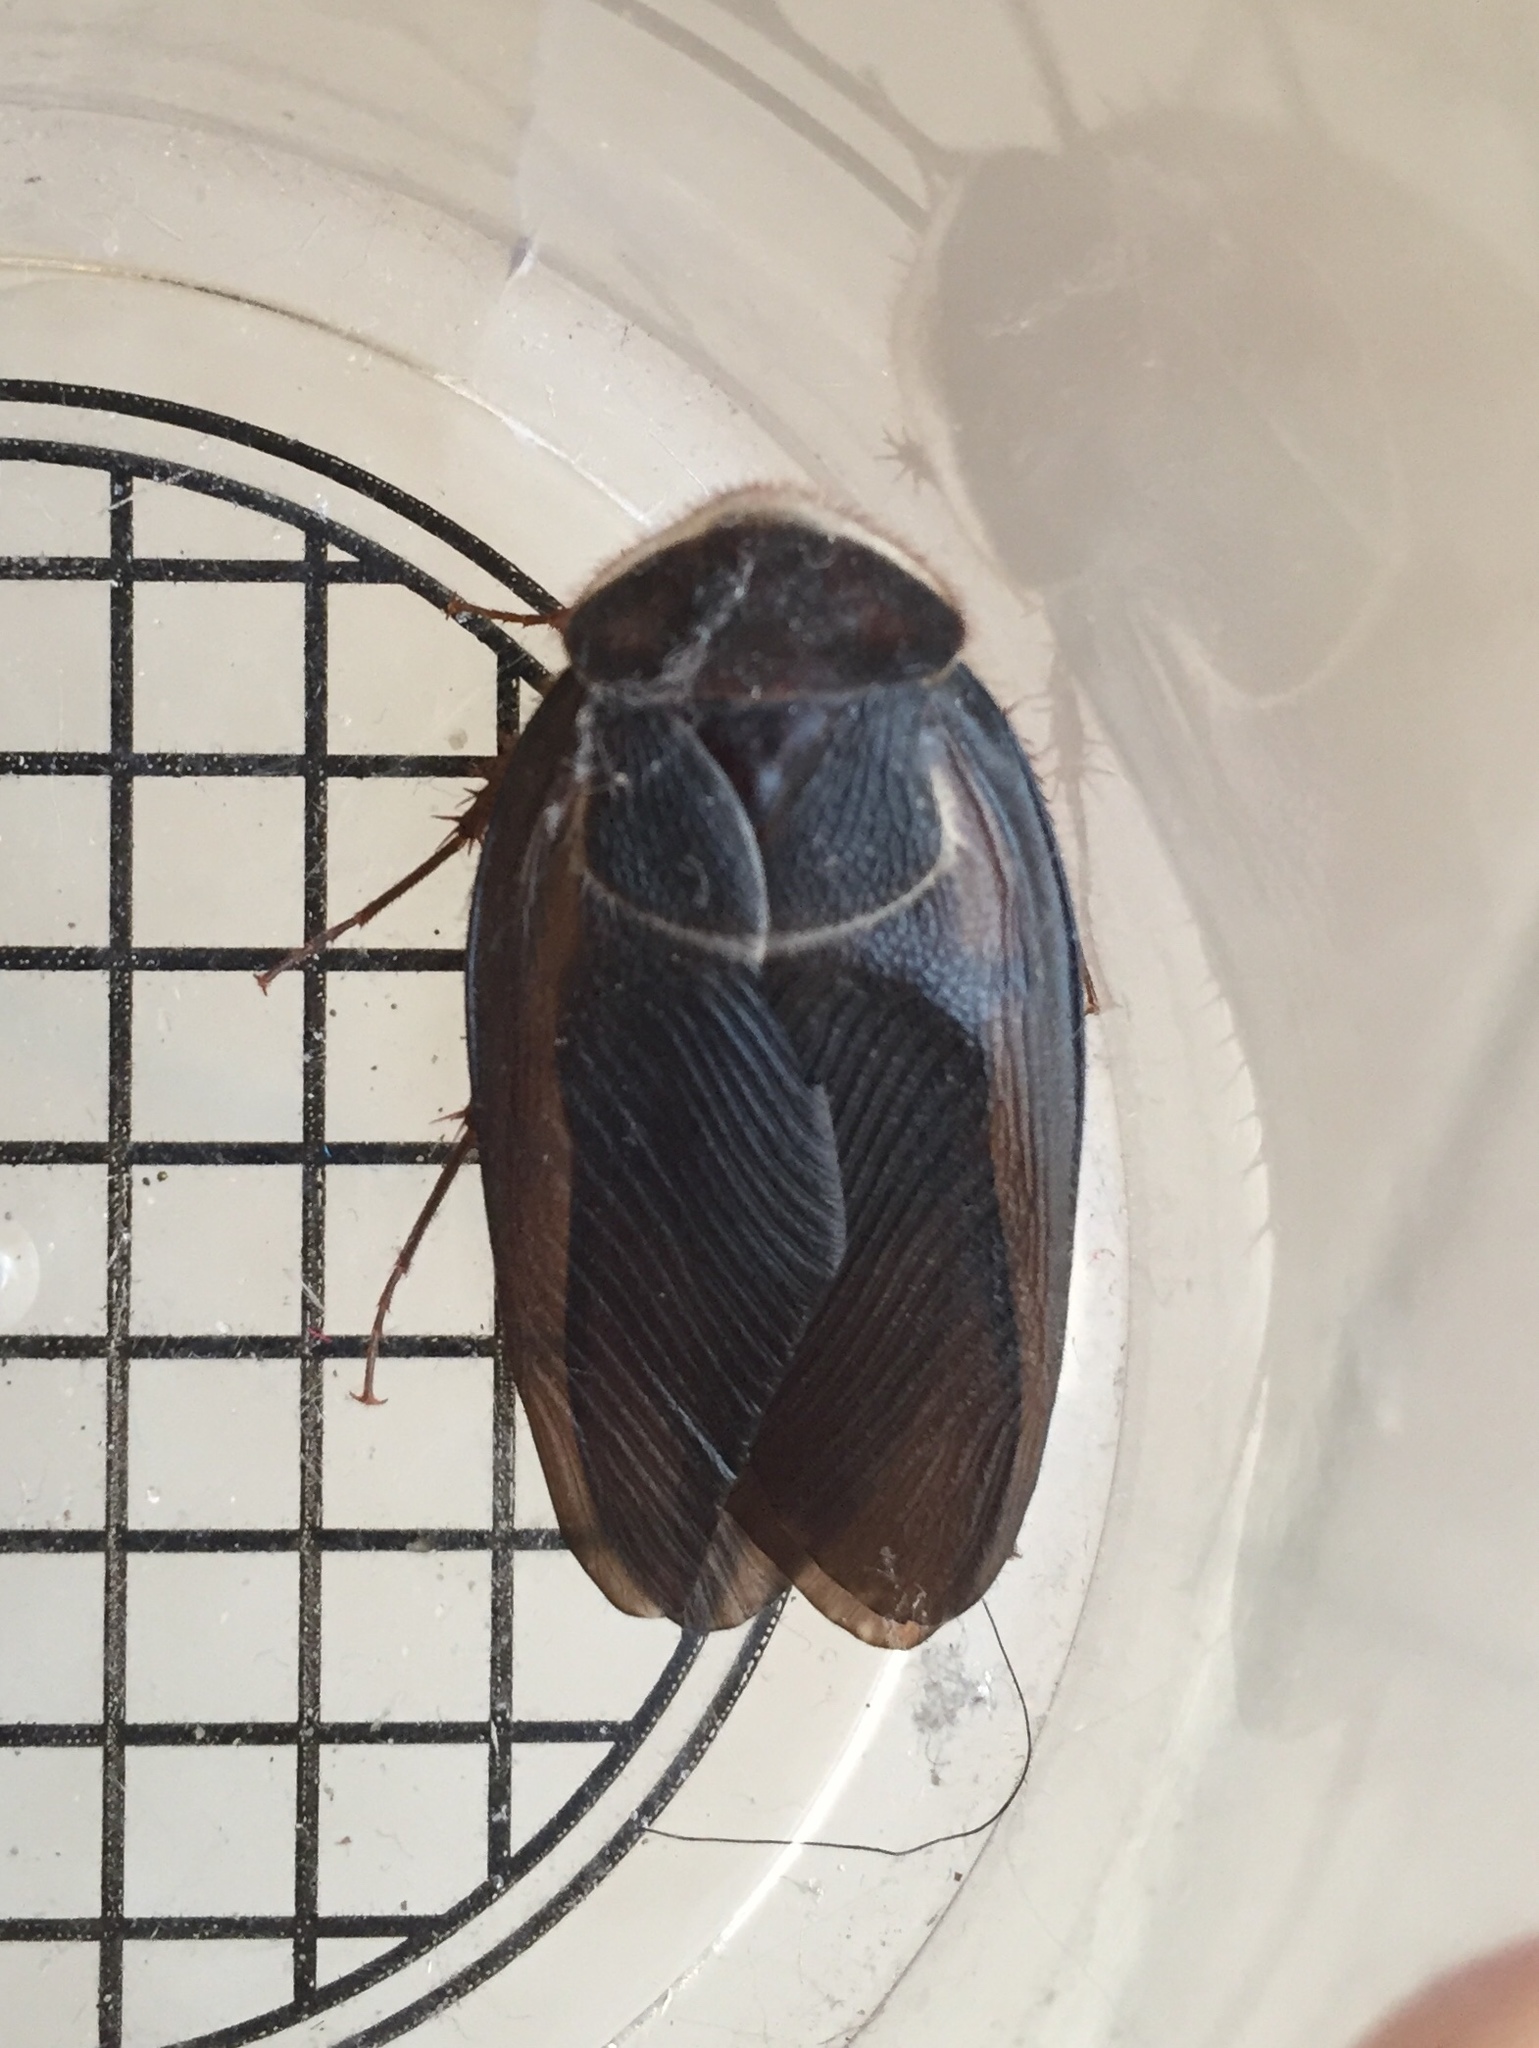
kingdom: Animalia
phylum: Arthropoda
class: Insecta
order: Blattodea
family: Corydiidae
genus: Polyphaga
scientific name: Polyphaga aegyptiaca
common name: Egyptian cockroach
